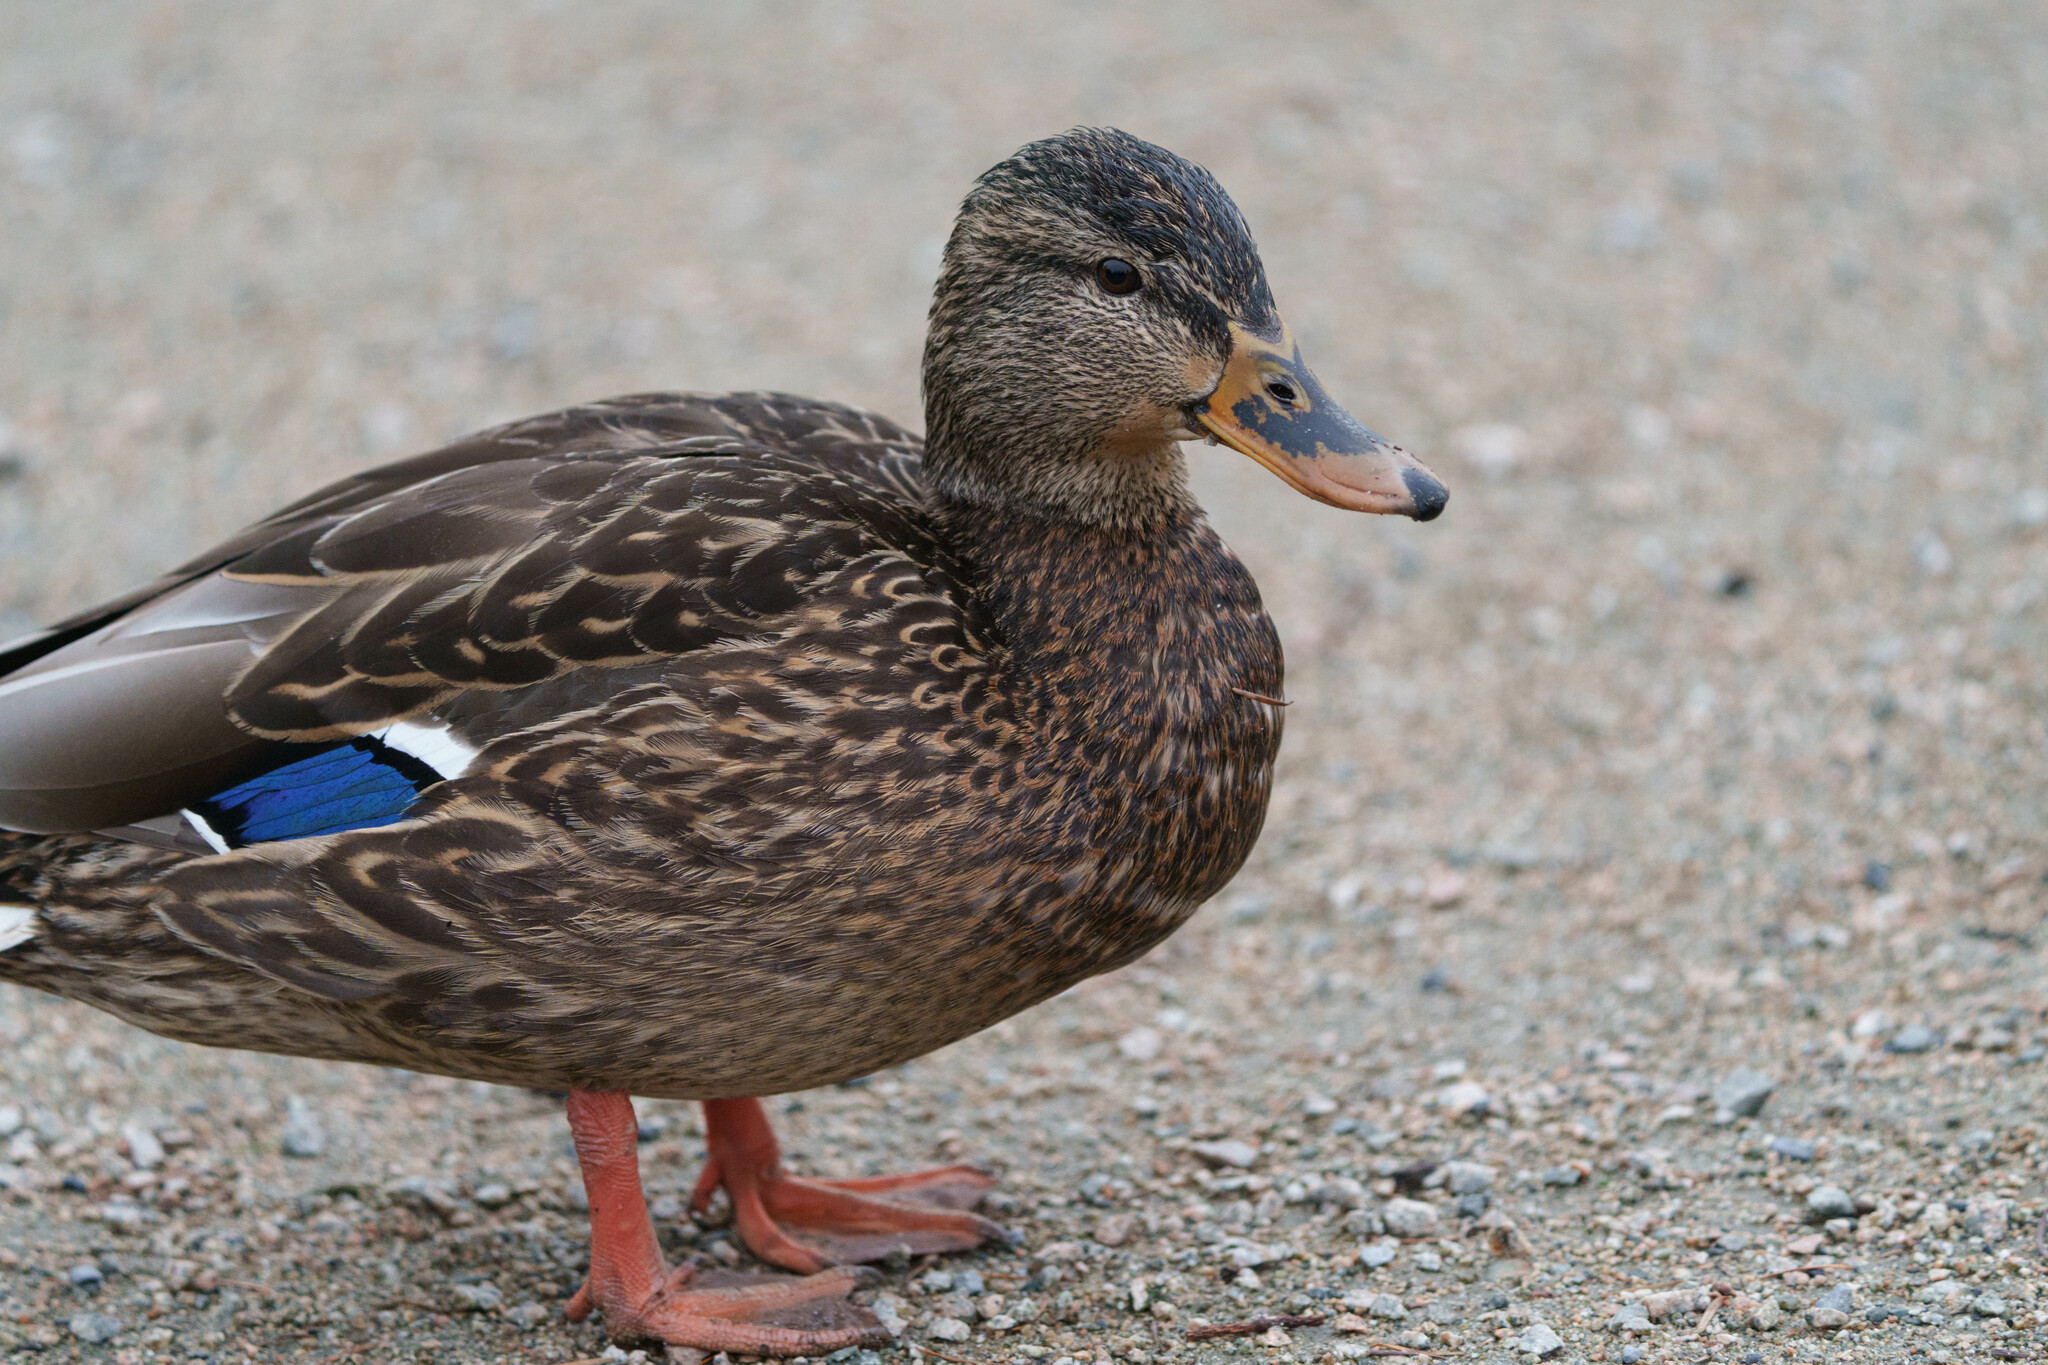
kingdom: Animalia
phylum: Chordata
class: Aves
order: Anseriformes
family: Anatidae
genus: Anas
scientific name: Anas platyrhynchos
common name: Mallard
